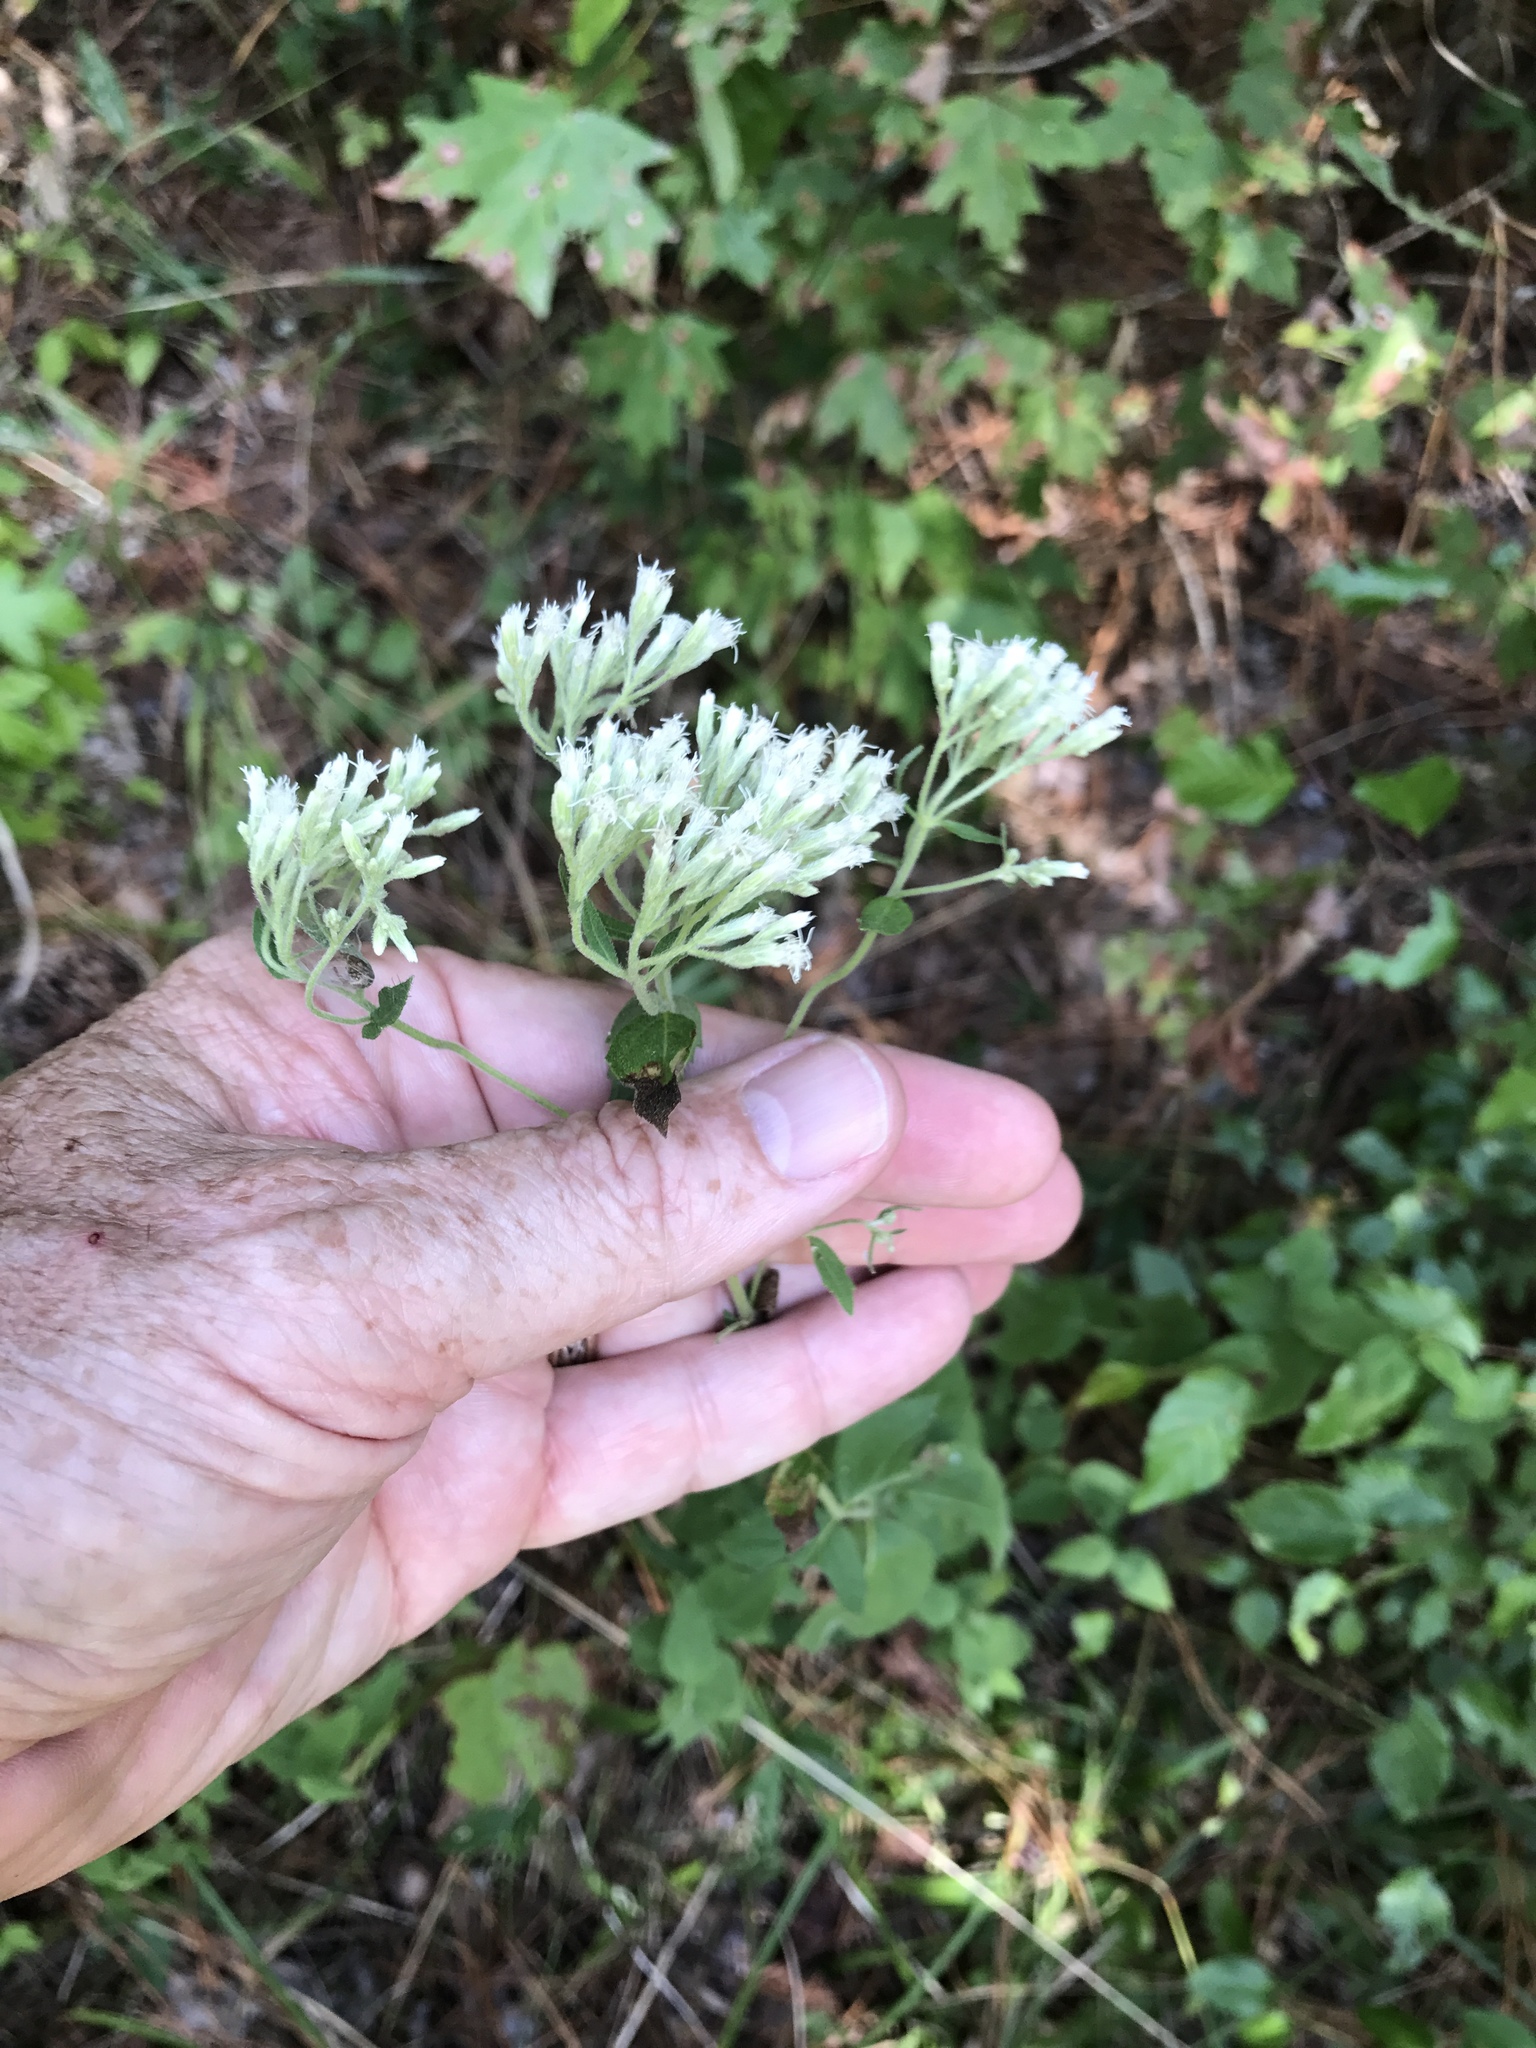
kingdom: Plantae
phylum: Tracheophyta
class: Magnoliopsida
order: Asterales
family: Asteraceae
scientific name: Asteraceae
